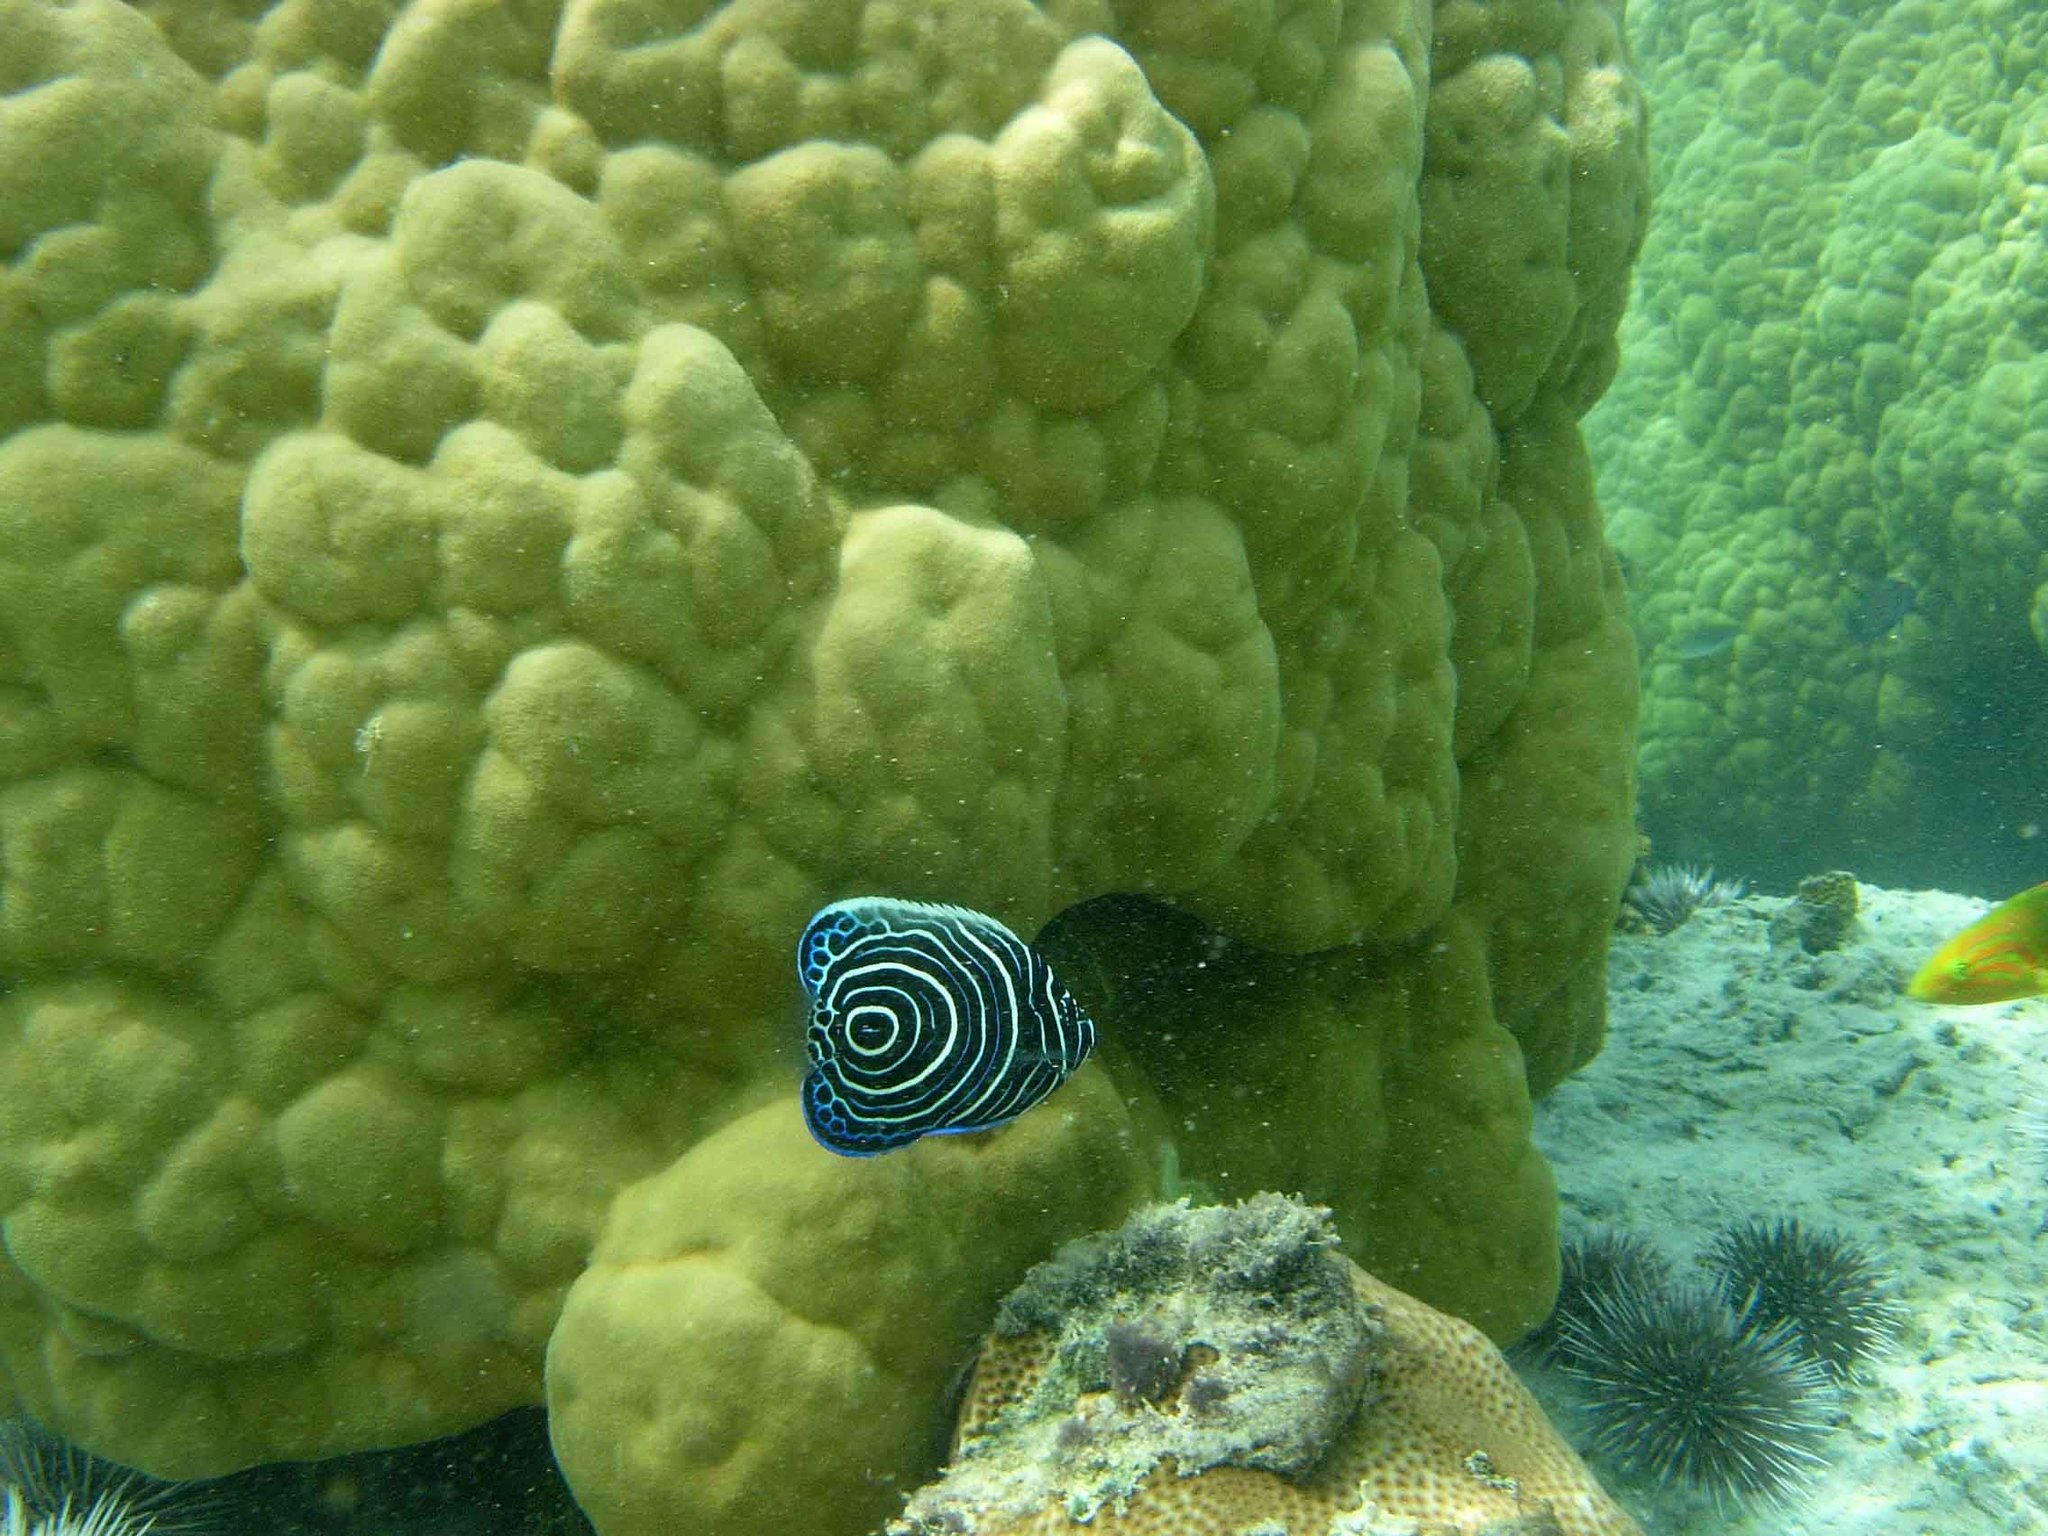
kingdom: Animalia
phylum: Chordata
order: Perciformes
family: Pomacanthidae
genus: Pomacanthus
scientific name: Pomacanthus imperator
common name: Emperor angelfish
